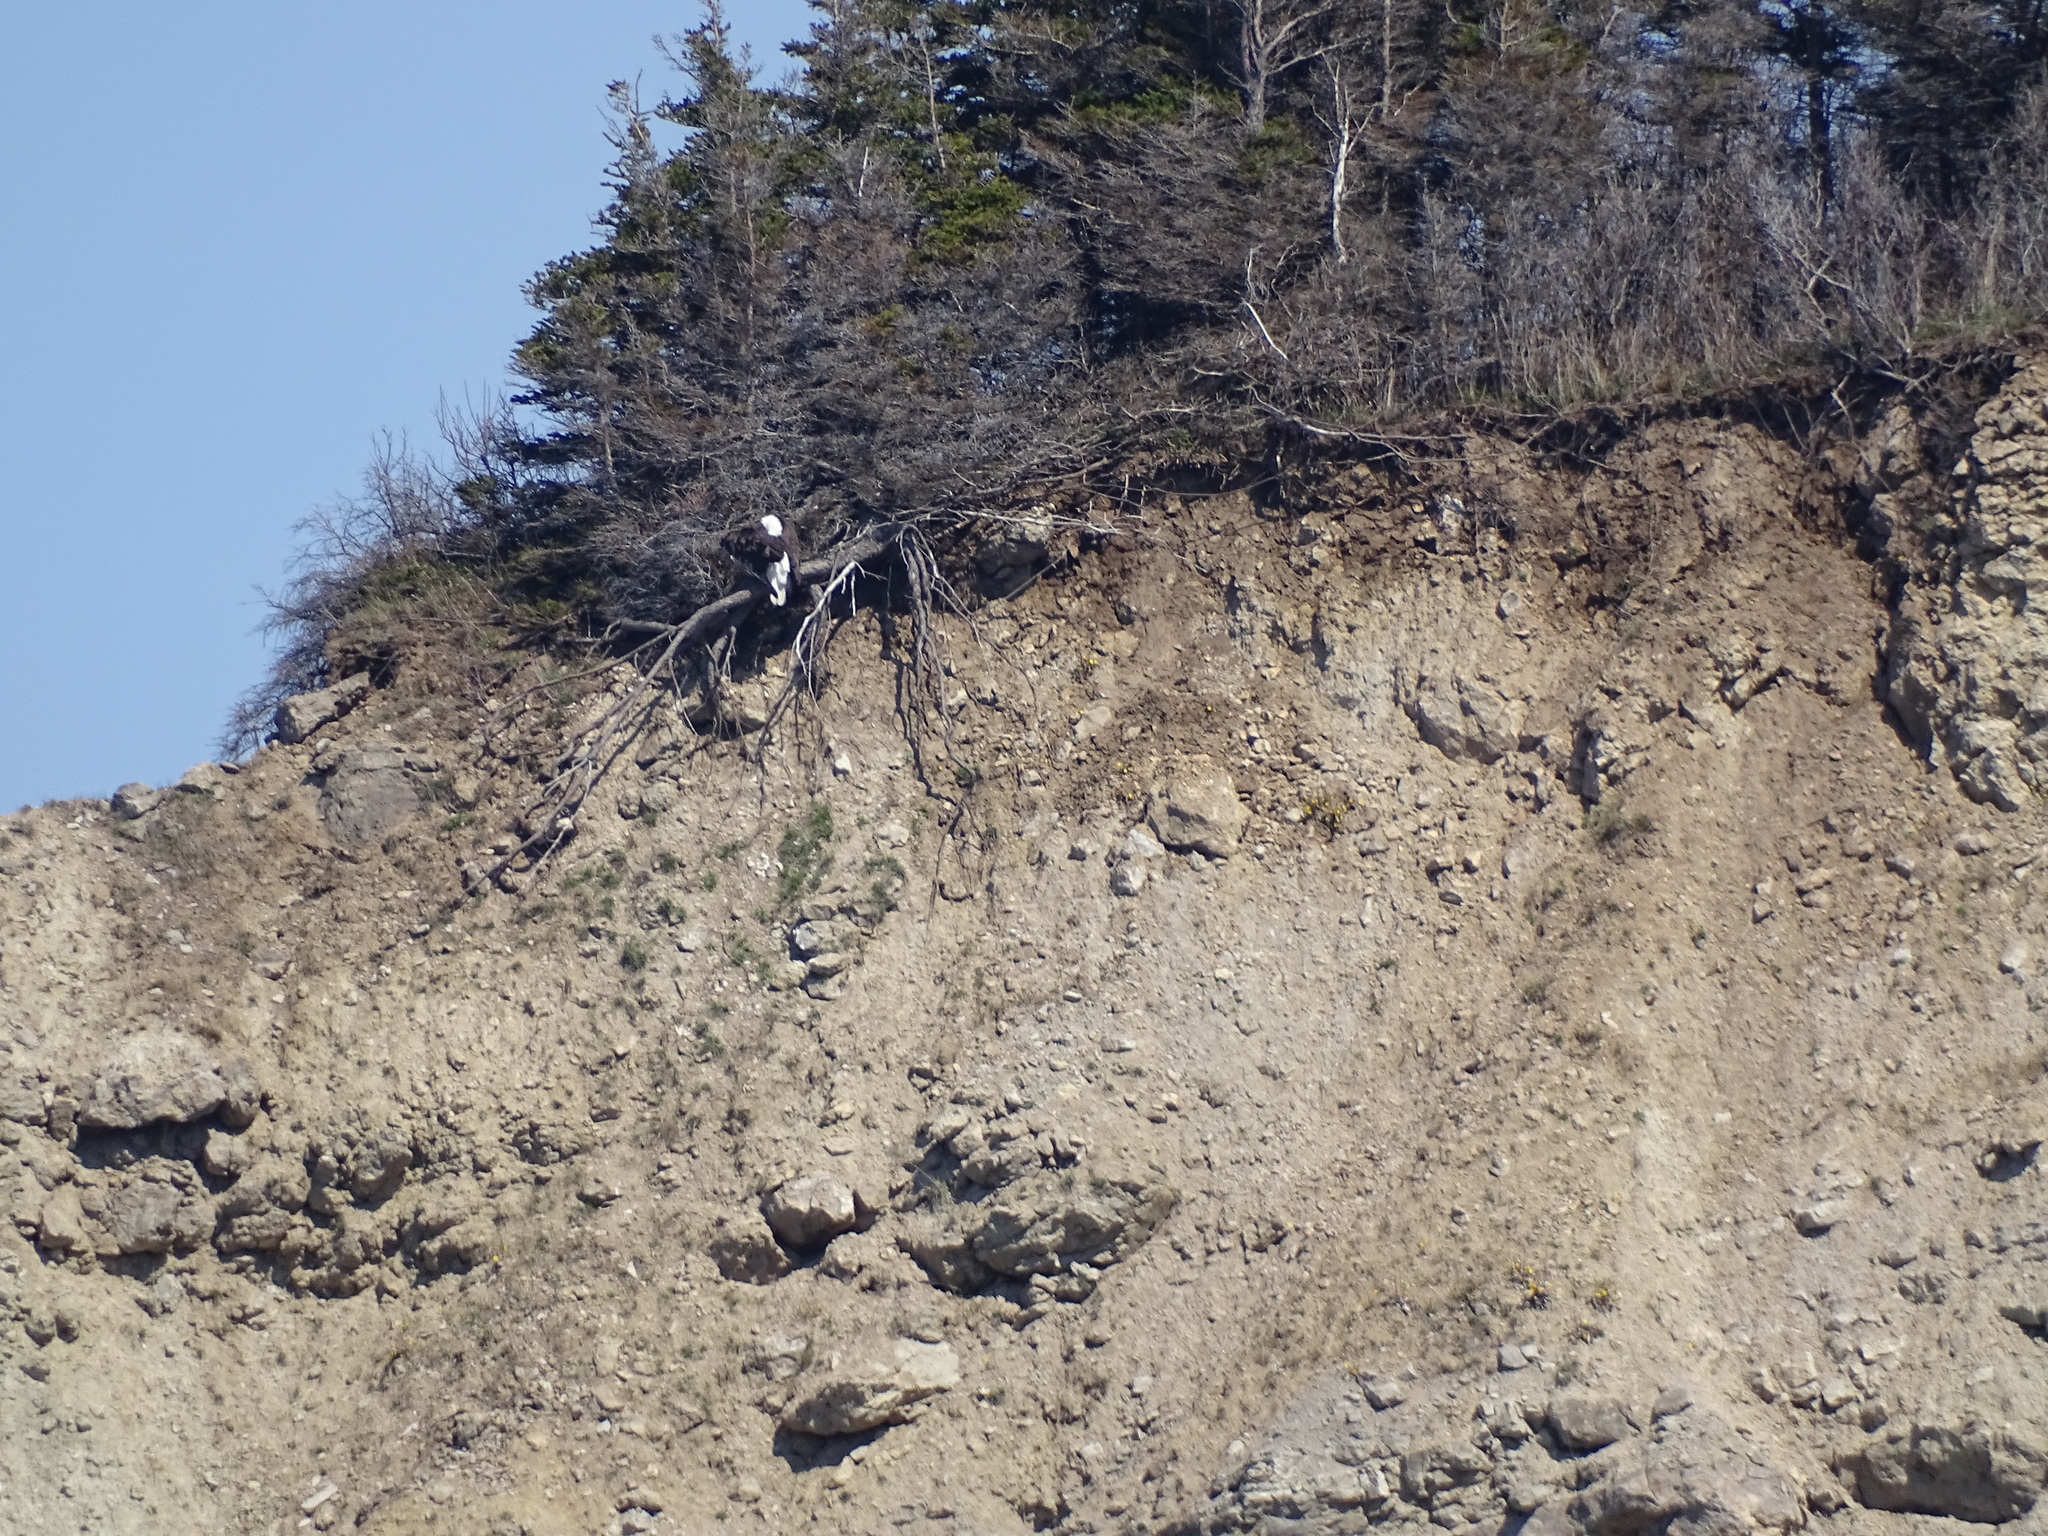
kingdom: Animalia
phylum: Chordata
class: Aves
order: Accipitriformes
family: Accipitridae
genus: Haliaeetus
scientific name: Haliaeetus leucocephalus
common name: Bald eagle
